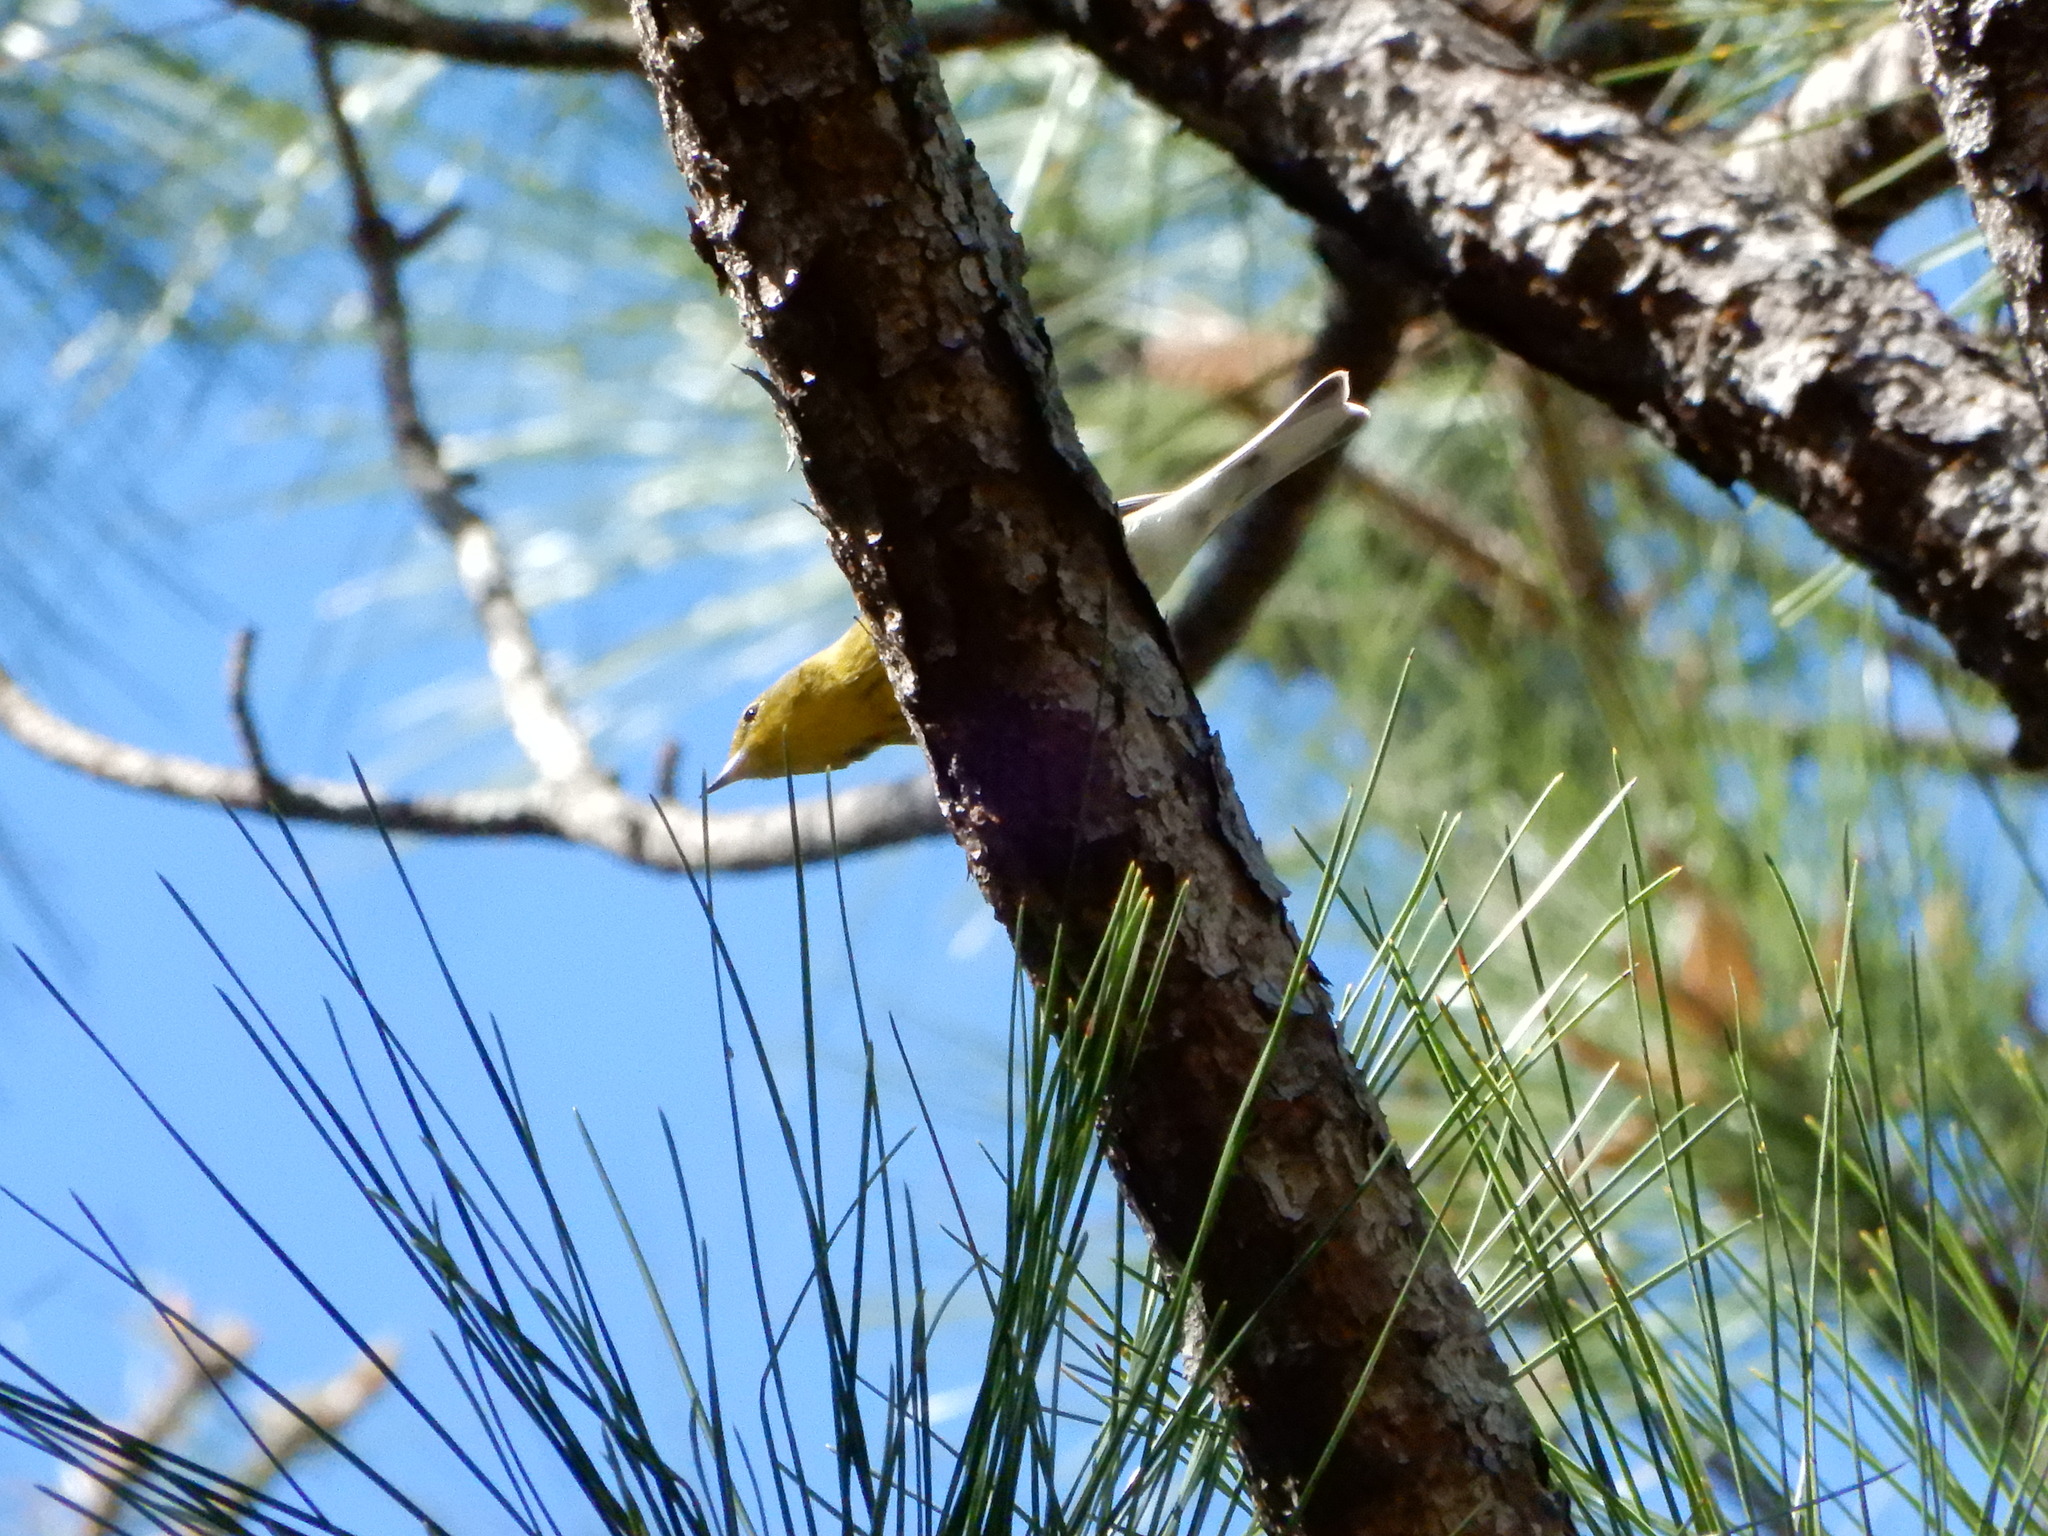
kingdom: Animalia
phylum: Chordata
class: Aves
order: Passeriformes
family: Parulidae
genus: Setophaga
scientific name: Setophaga pinus
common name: Pine warbler
